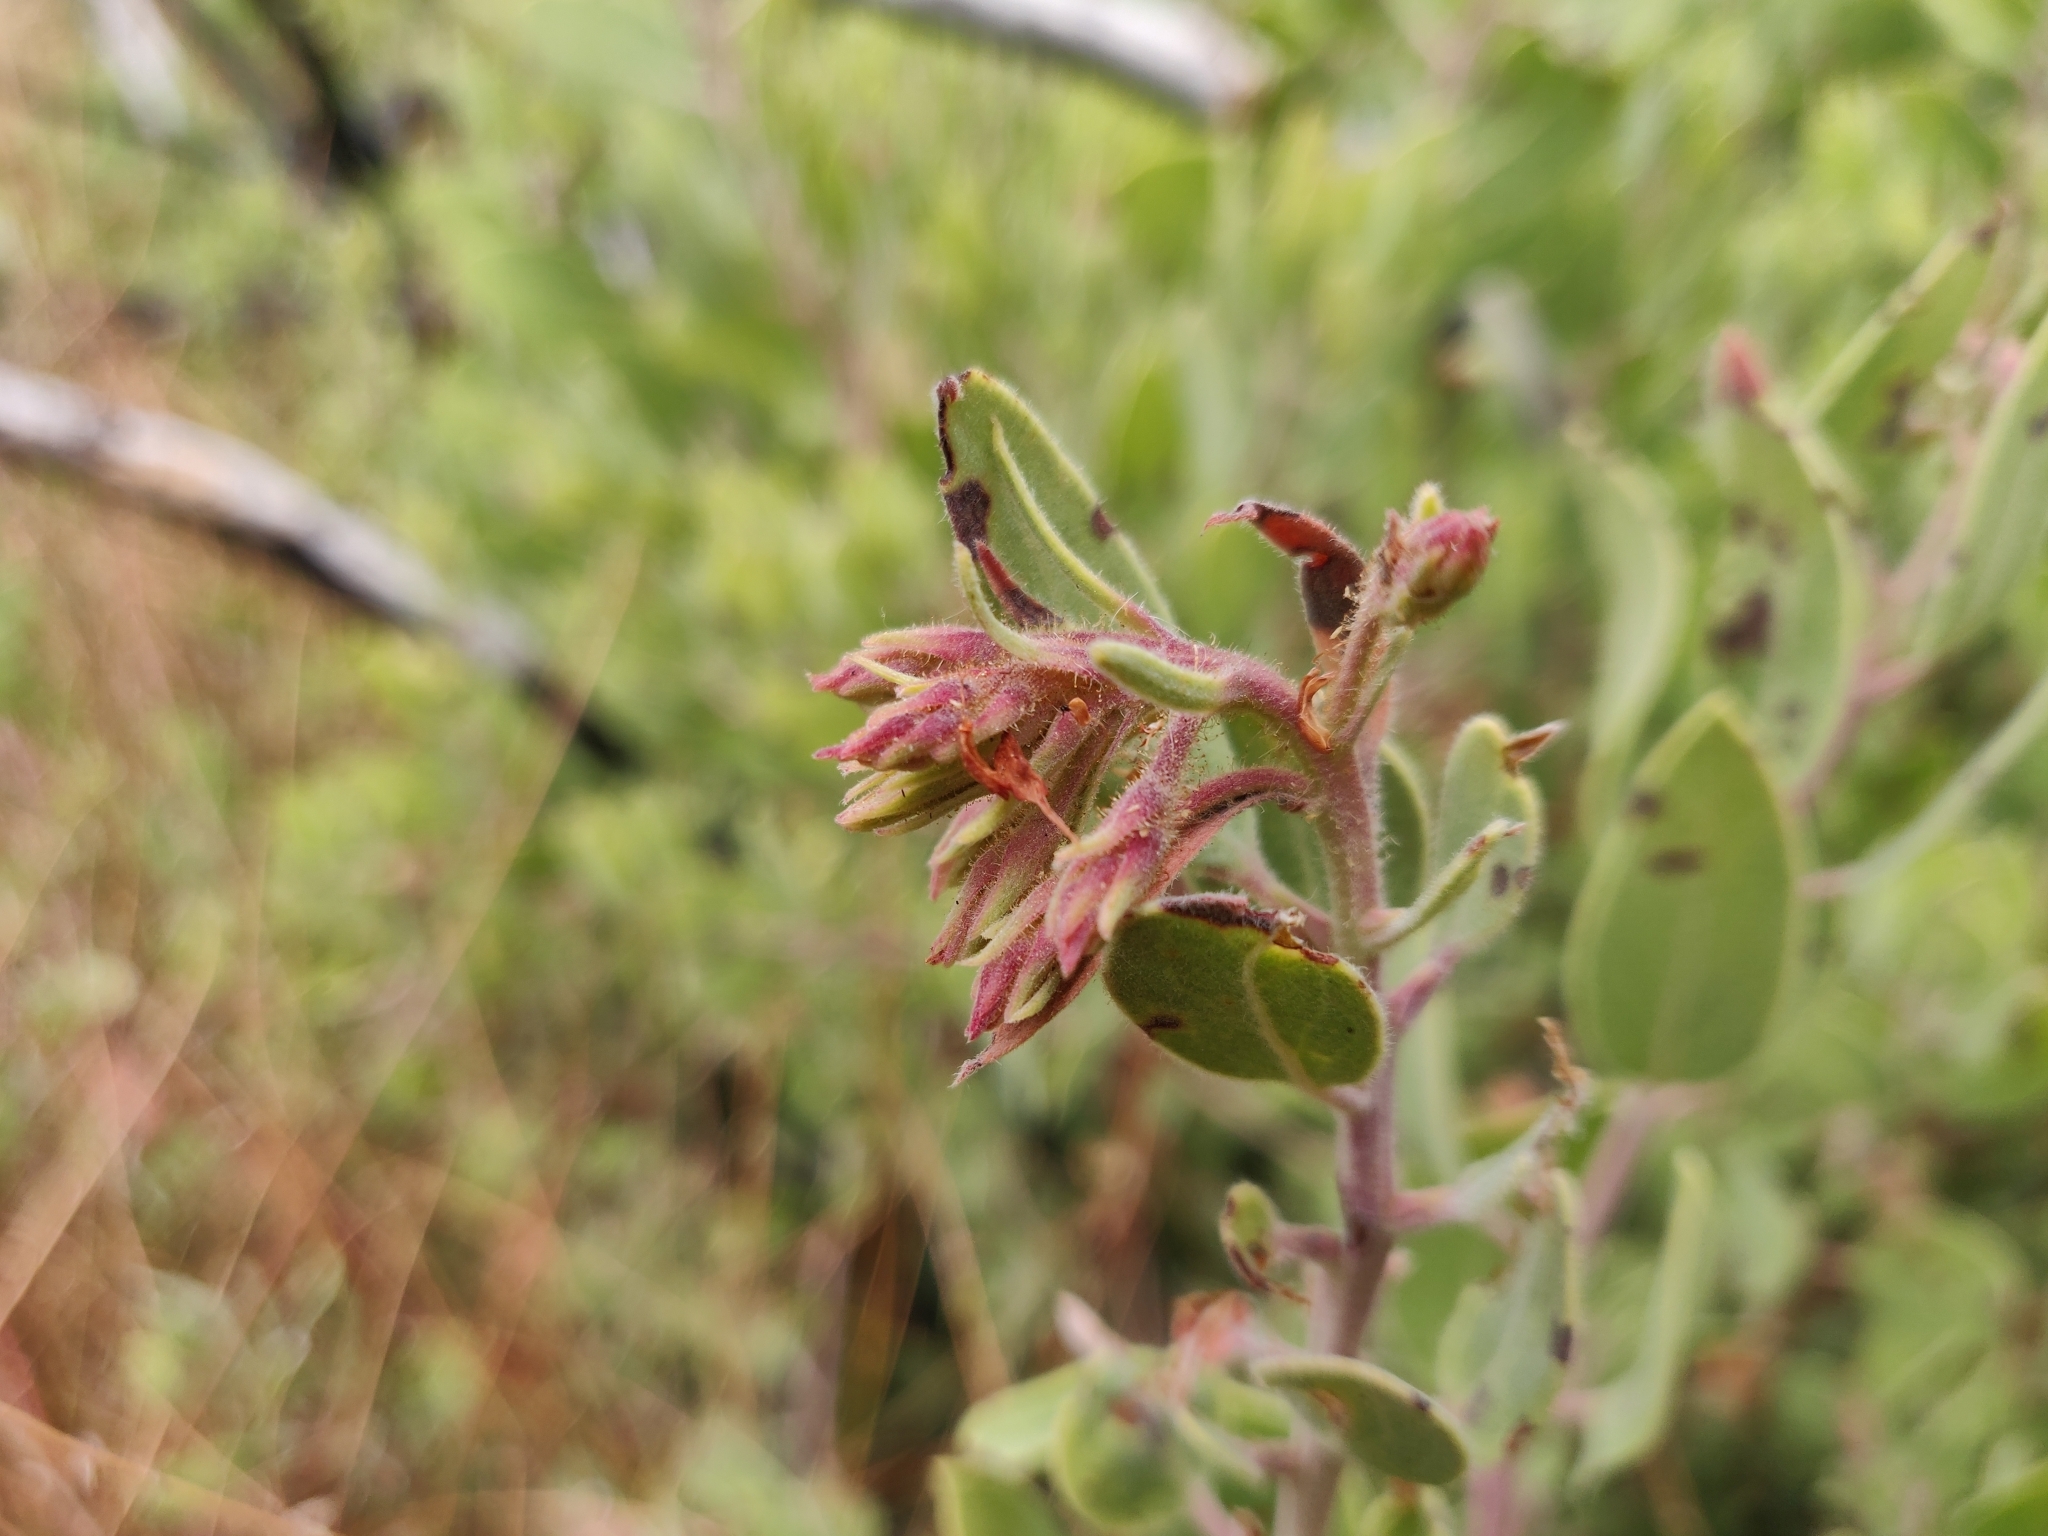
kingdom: Plantae
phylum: Tracheophyta
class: Magnoliopsida
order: Ericales
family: Ericaceae
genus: Arctostaphylos
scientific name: Arctostaphylos glandulosa
